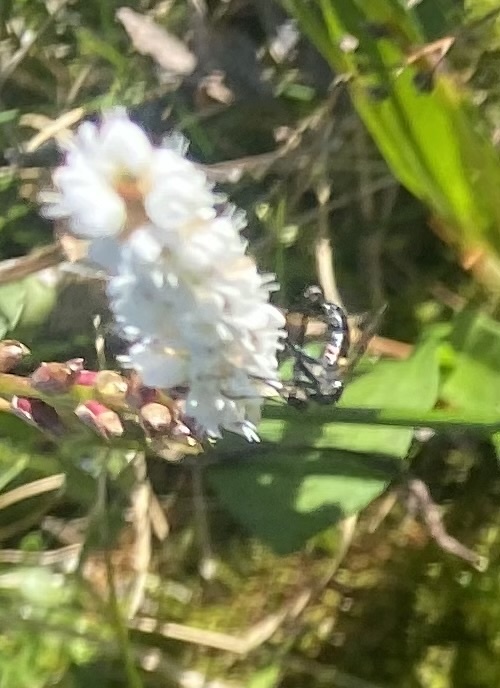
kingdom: Plantae
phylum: Tracheophyta
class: Magnoliopsida
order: Caryophyllales
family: Polygonaceae
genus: Bistorta
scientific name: Bistorta vivipara
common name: Alpine bistort
